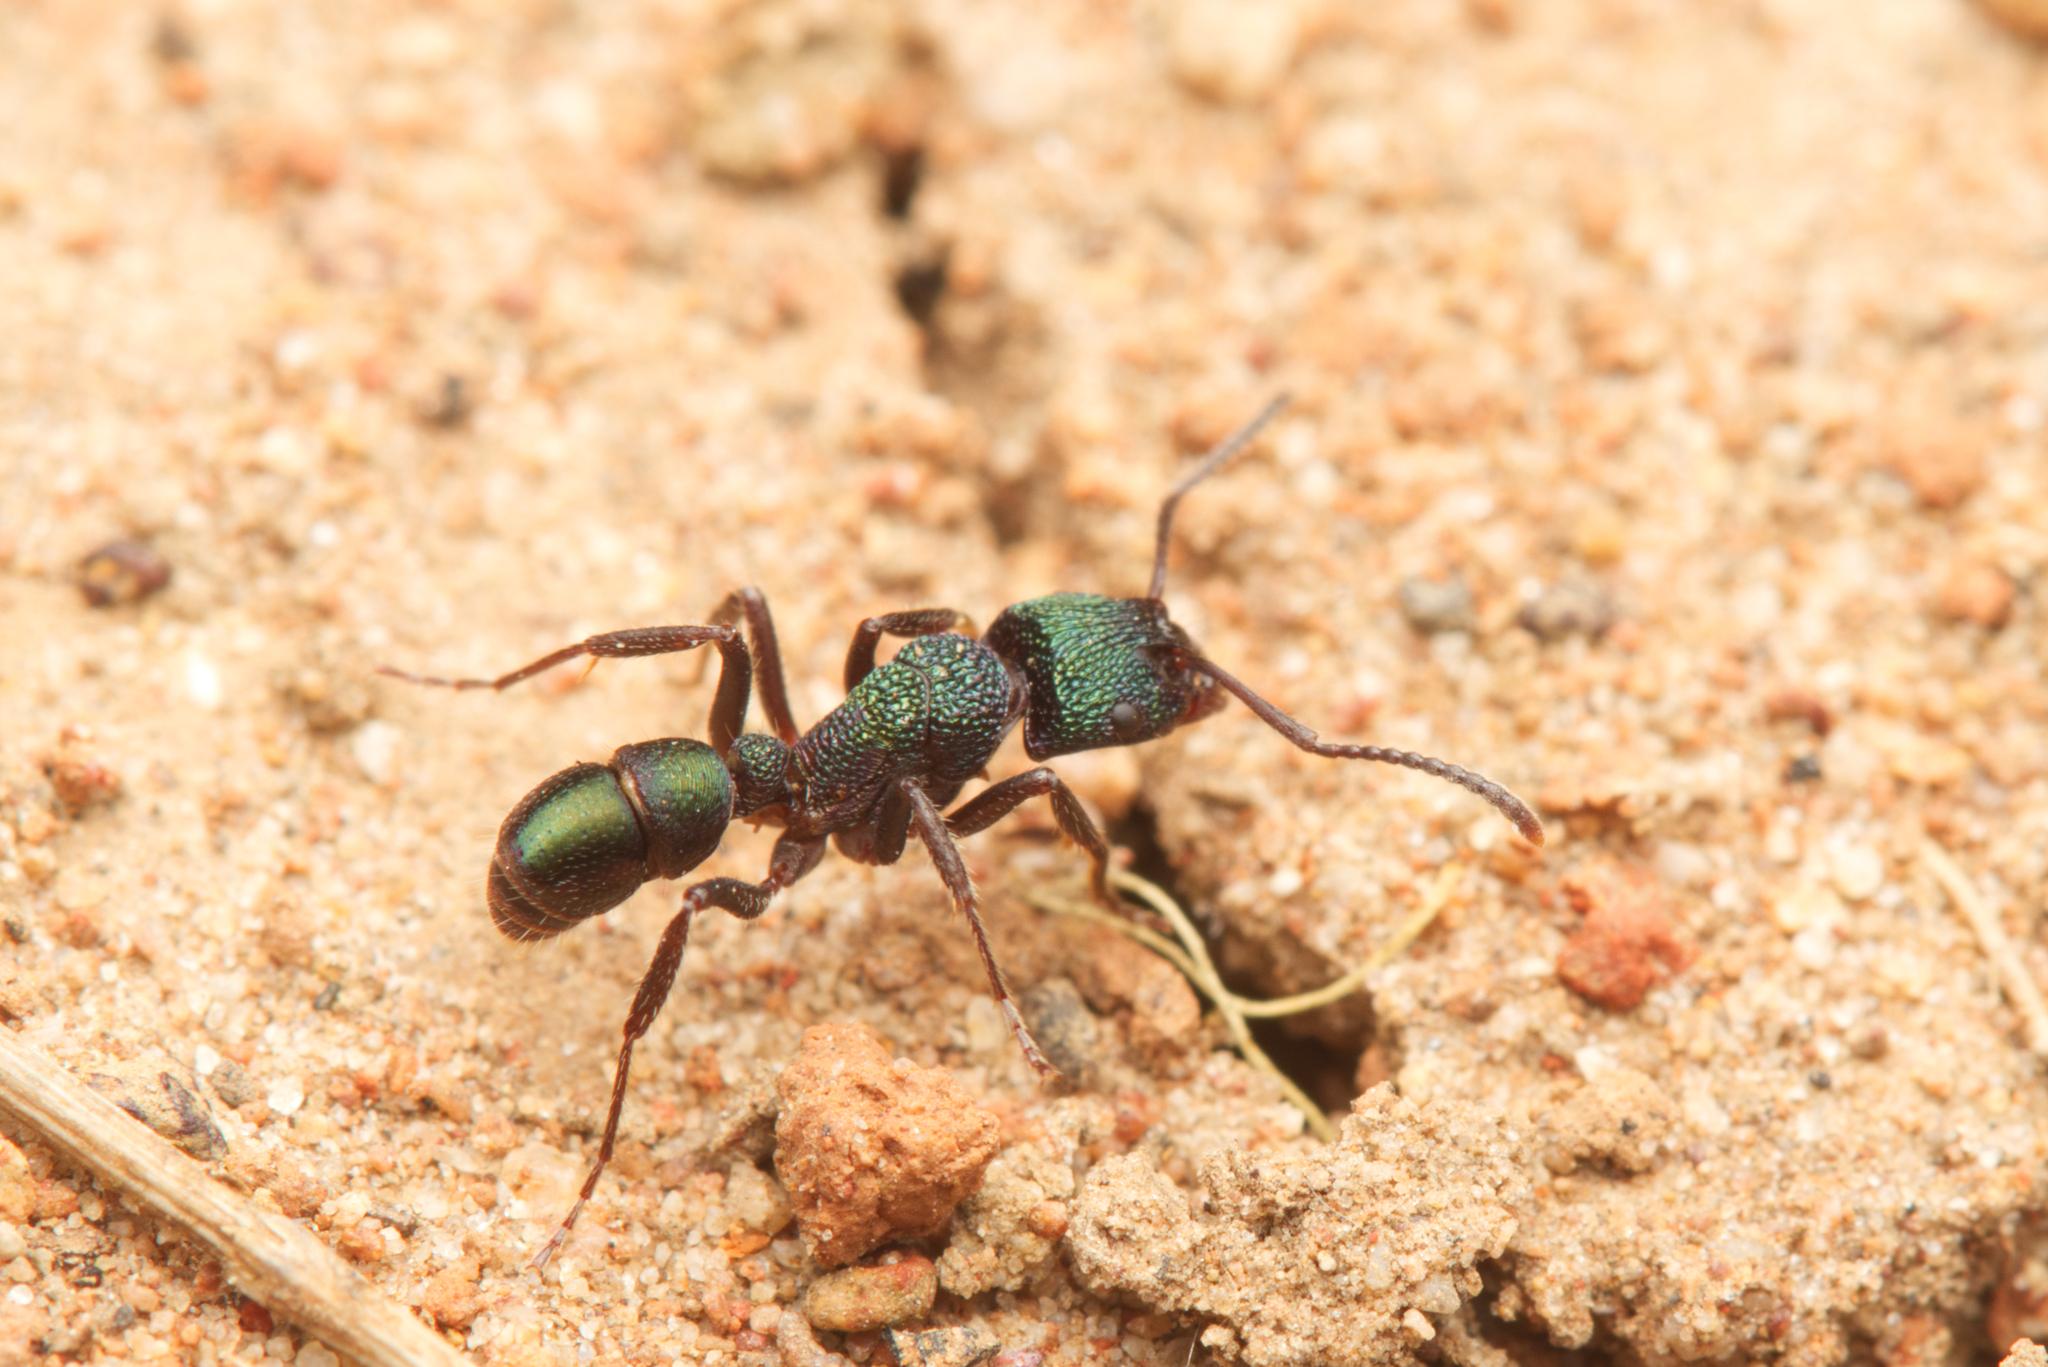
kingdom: Animalia
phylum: Arthropoda
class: Insecta
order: Hymenoptera
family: Formicidae
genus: Rhytidoponera
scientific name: Rhytidoponera metallica
